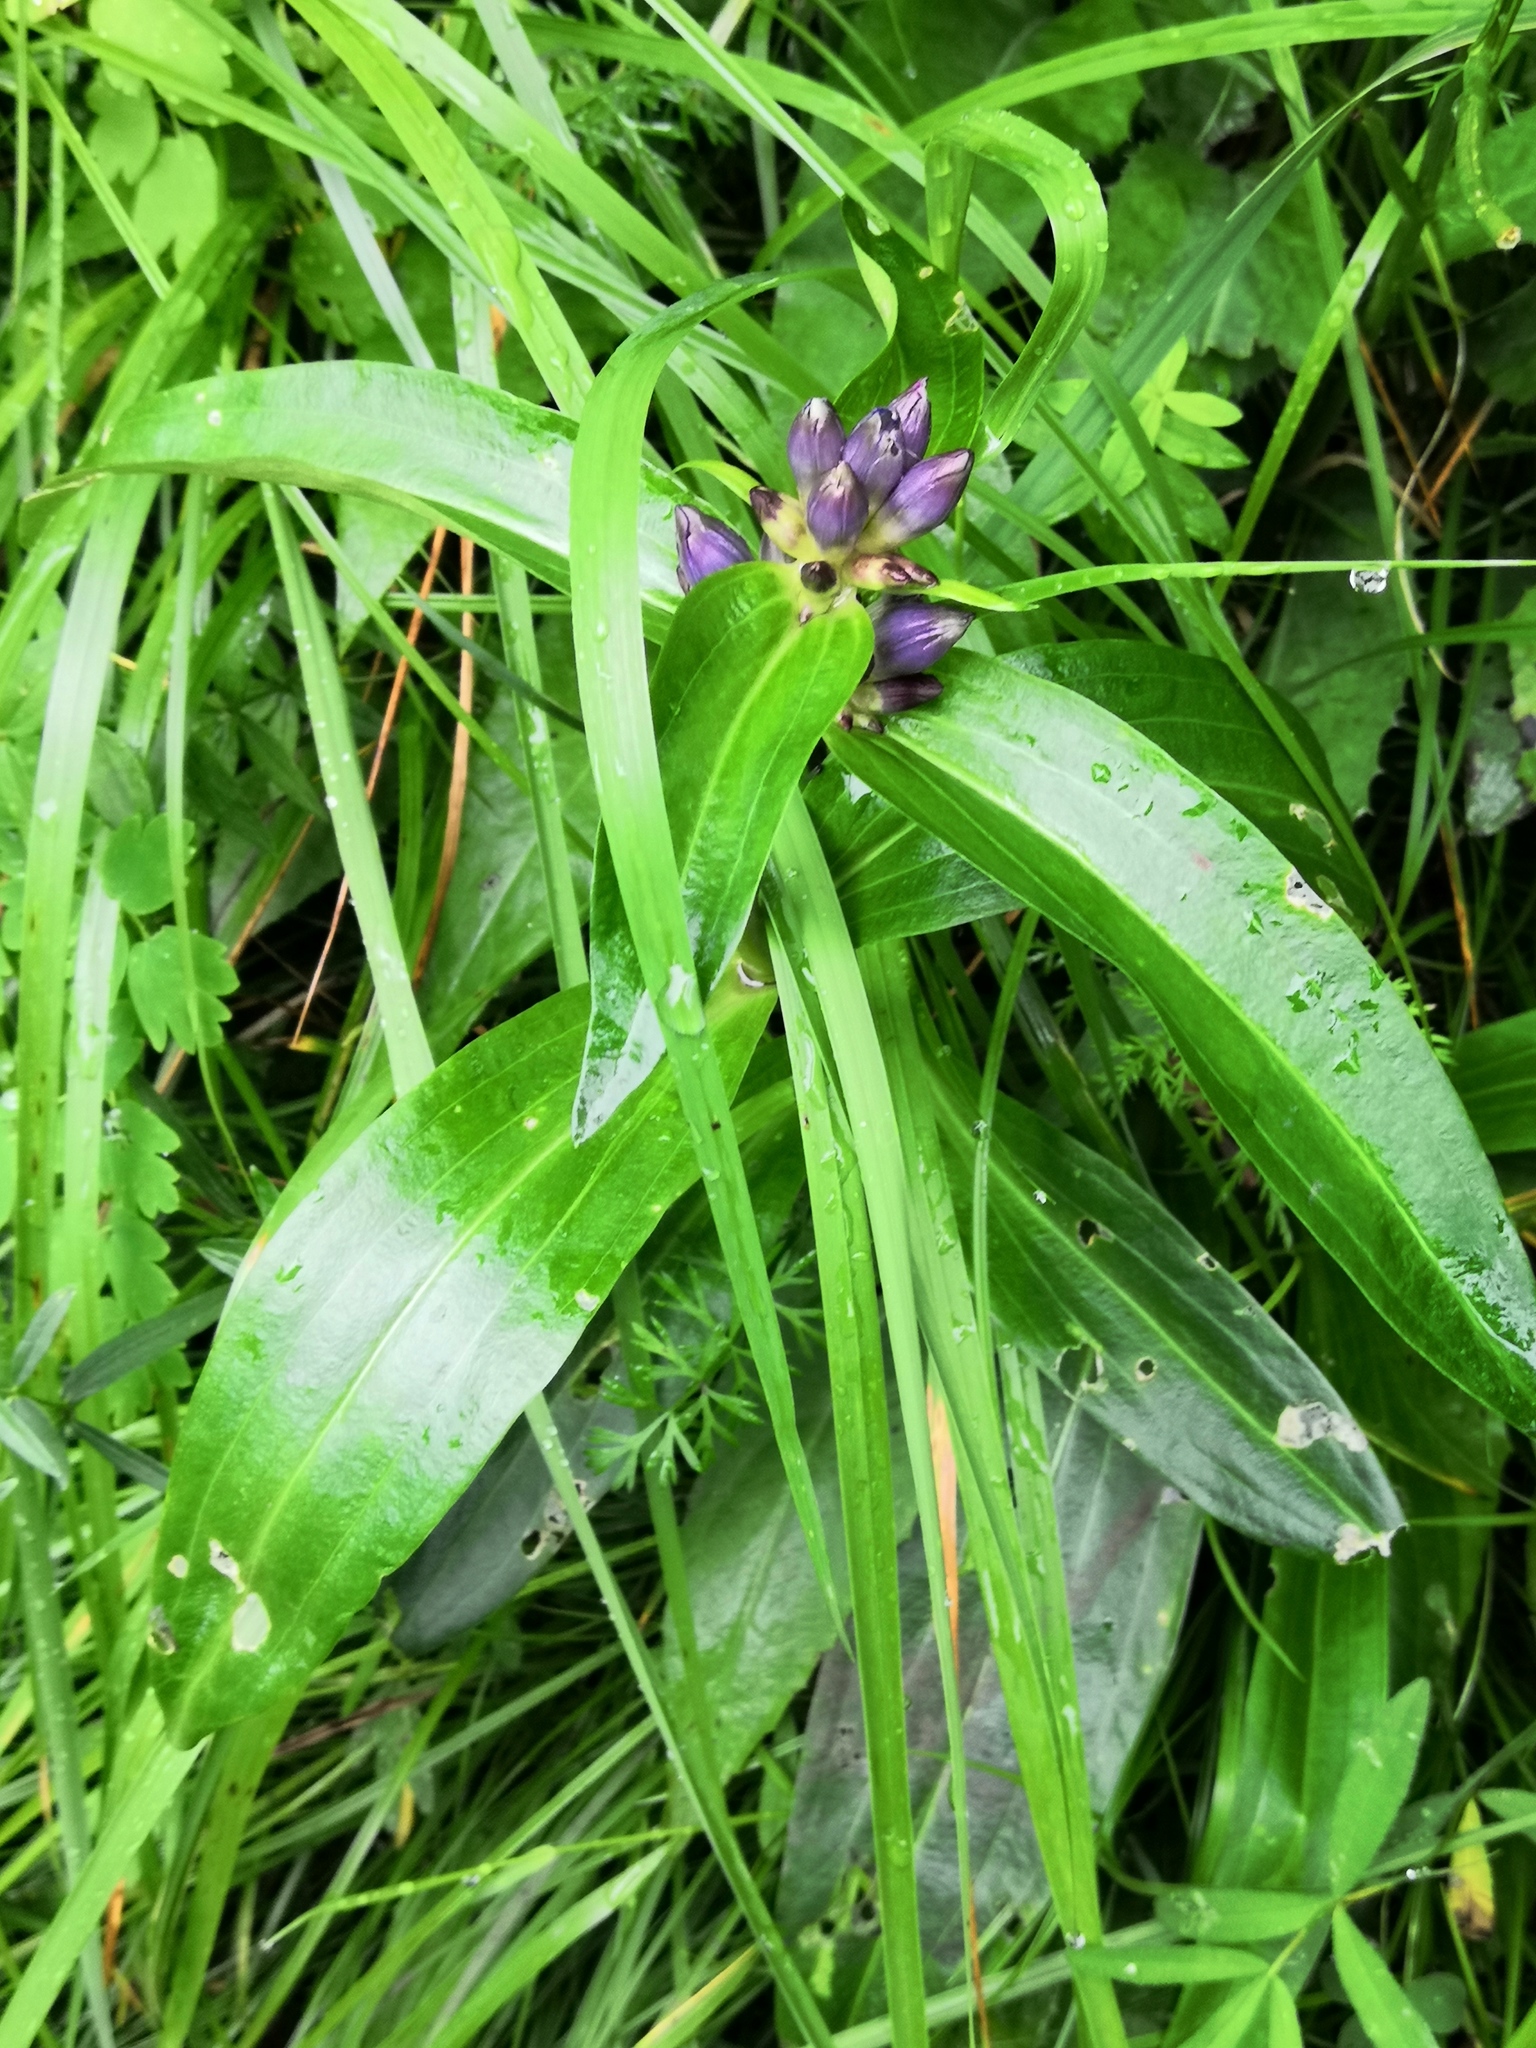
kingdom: Plantae
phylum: Tracheophyta
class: Magnoliopsida
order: Gentianales
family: Gentianaceae
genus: Gentiana
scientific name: Gentiana macrophylla
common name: Large-leaf gentian
